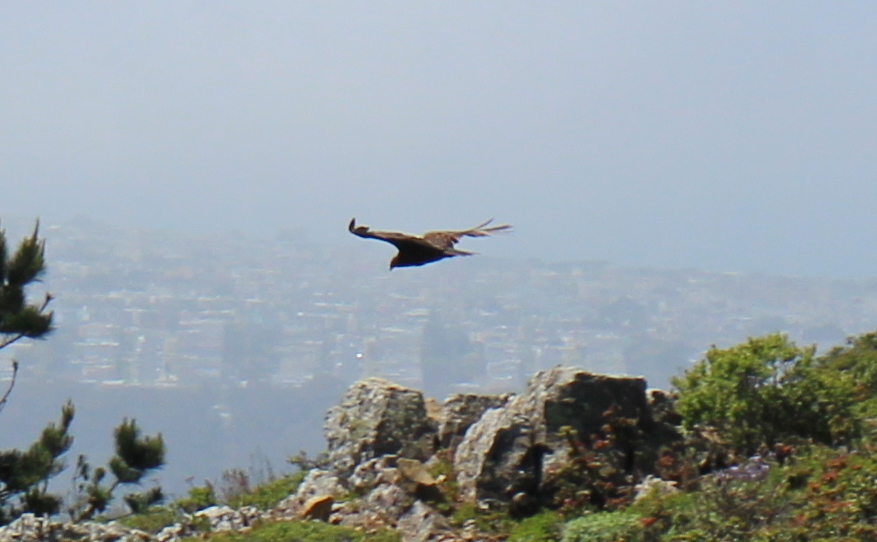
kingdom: Animalia
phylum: Chordata
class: Aves
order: Accipitriformes
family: Cathartidae
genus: Cathartes
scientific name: Cathartes aura
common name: Turkey vulture
